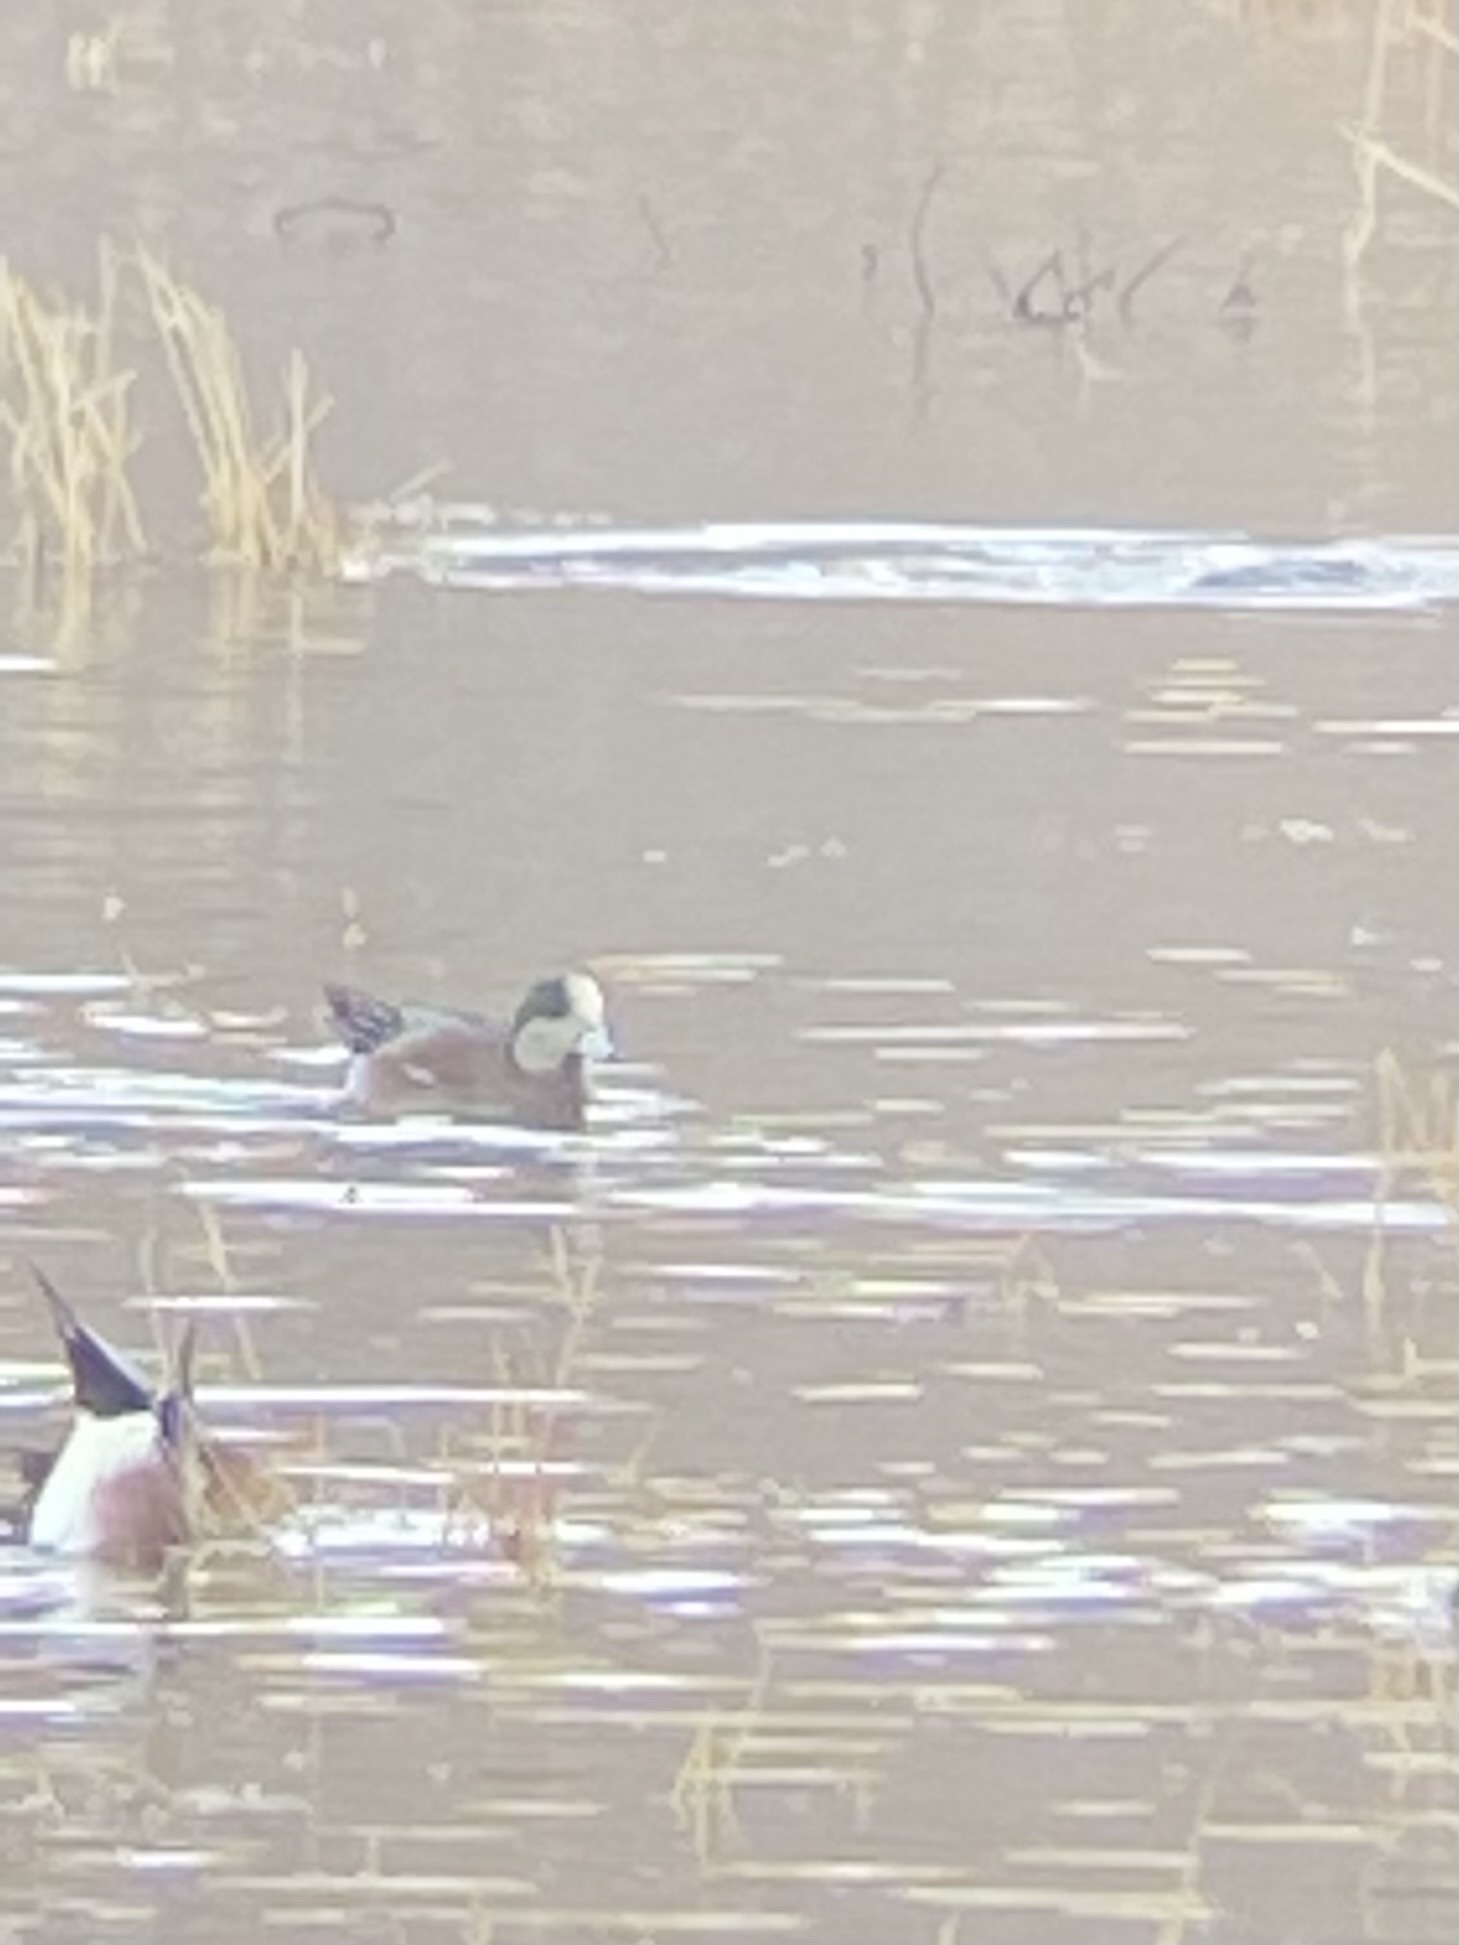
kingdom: Animalia
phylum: Chordata
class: Aves
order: Anseriformes
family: Anatidae
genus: Mareca
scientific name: Mareca americana
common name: American wigeon
